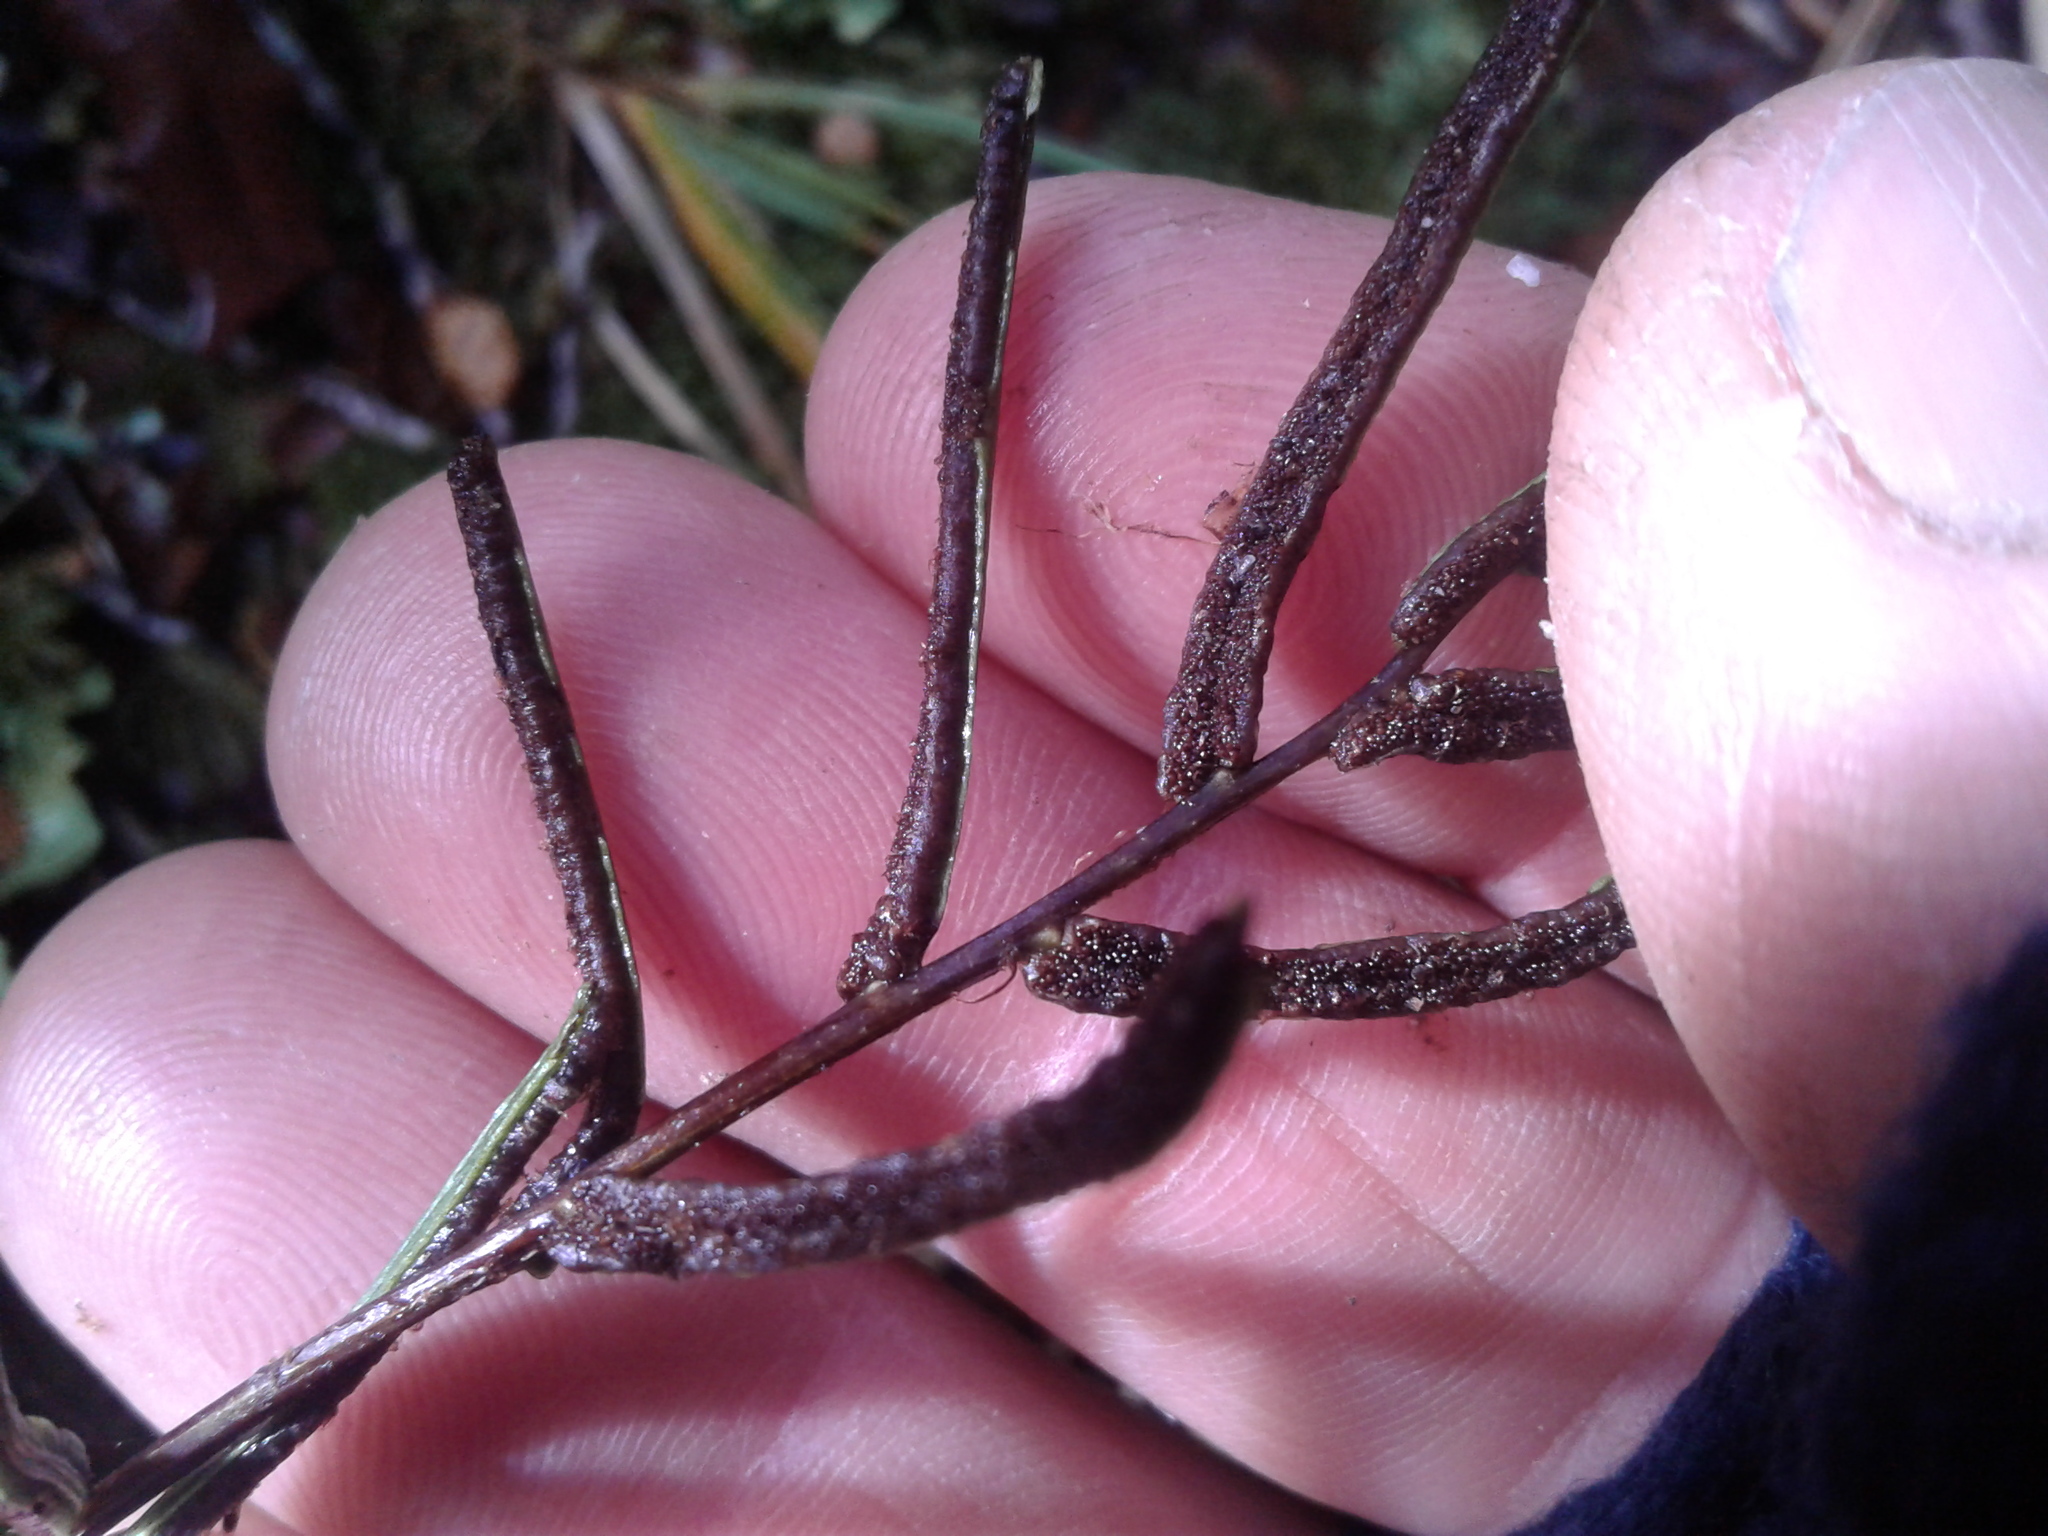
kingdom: Plantae
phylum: Tracheophyta
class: Polypodiopsida
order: Polypodiales
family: Blechnaceae
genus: Parablechnum
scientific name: Parablechnum procerum
